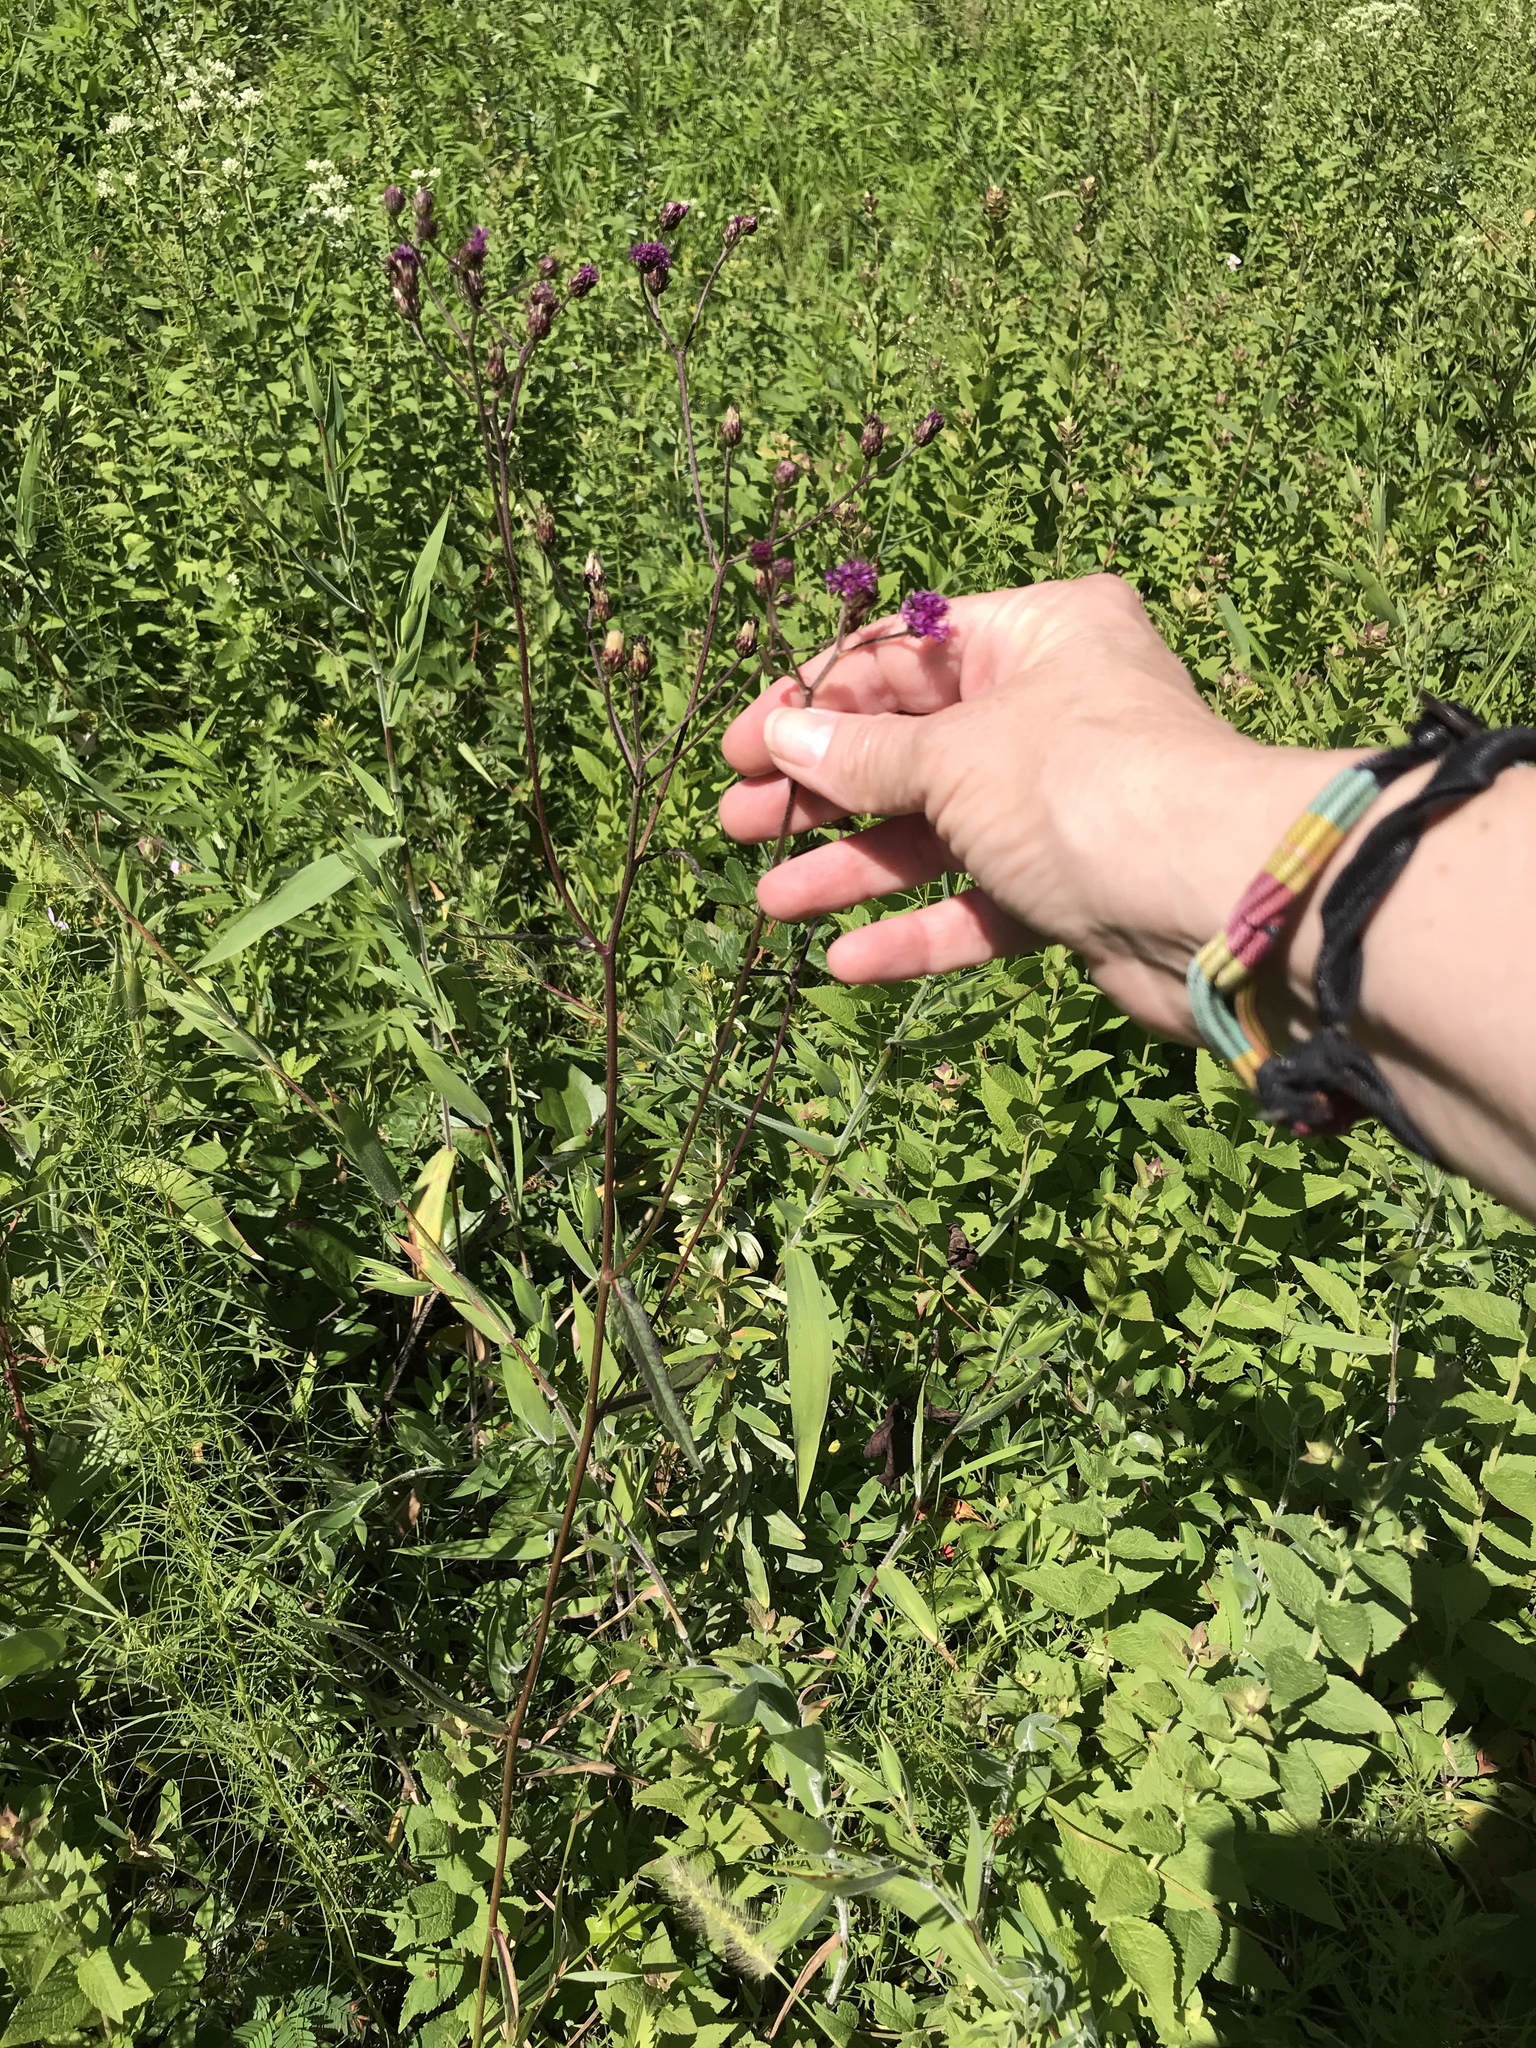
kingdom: Plantae
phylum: Tracheophyta
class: Magnoliopsida
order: Asterales
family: Asteraceae
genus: Vernonia
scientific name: Vernonia acaulis
